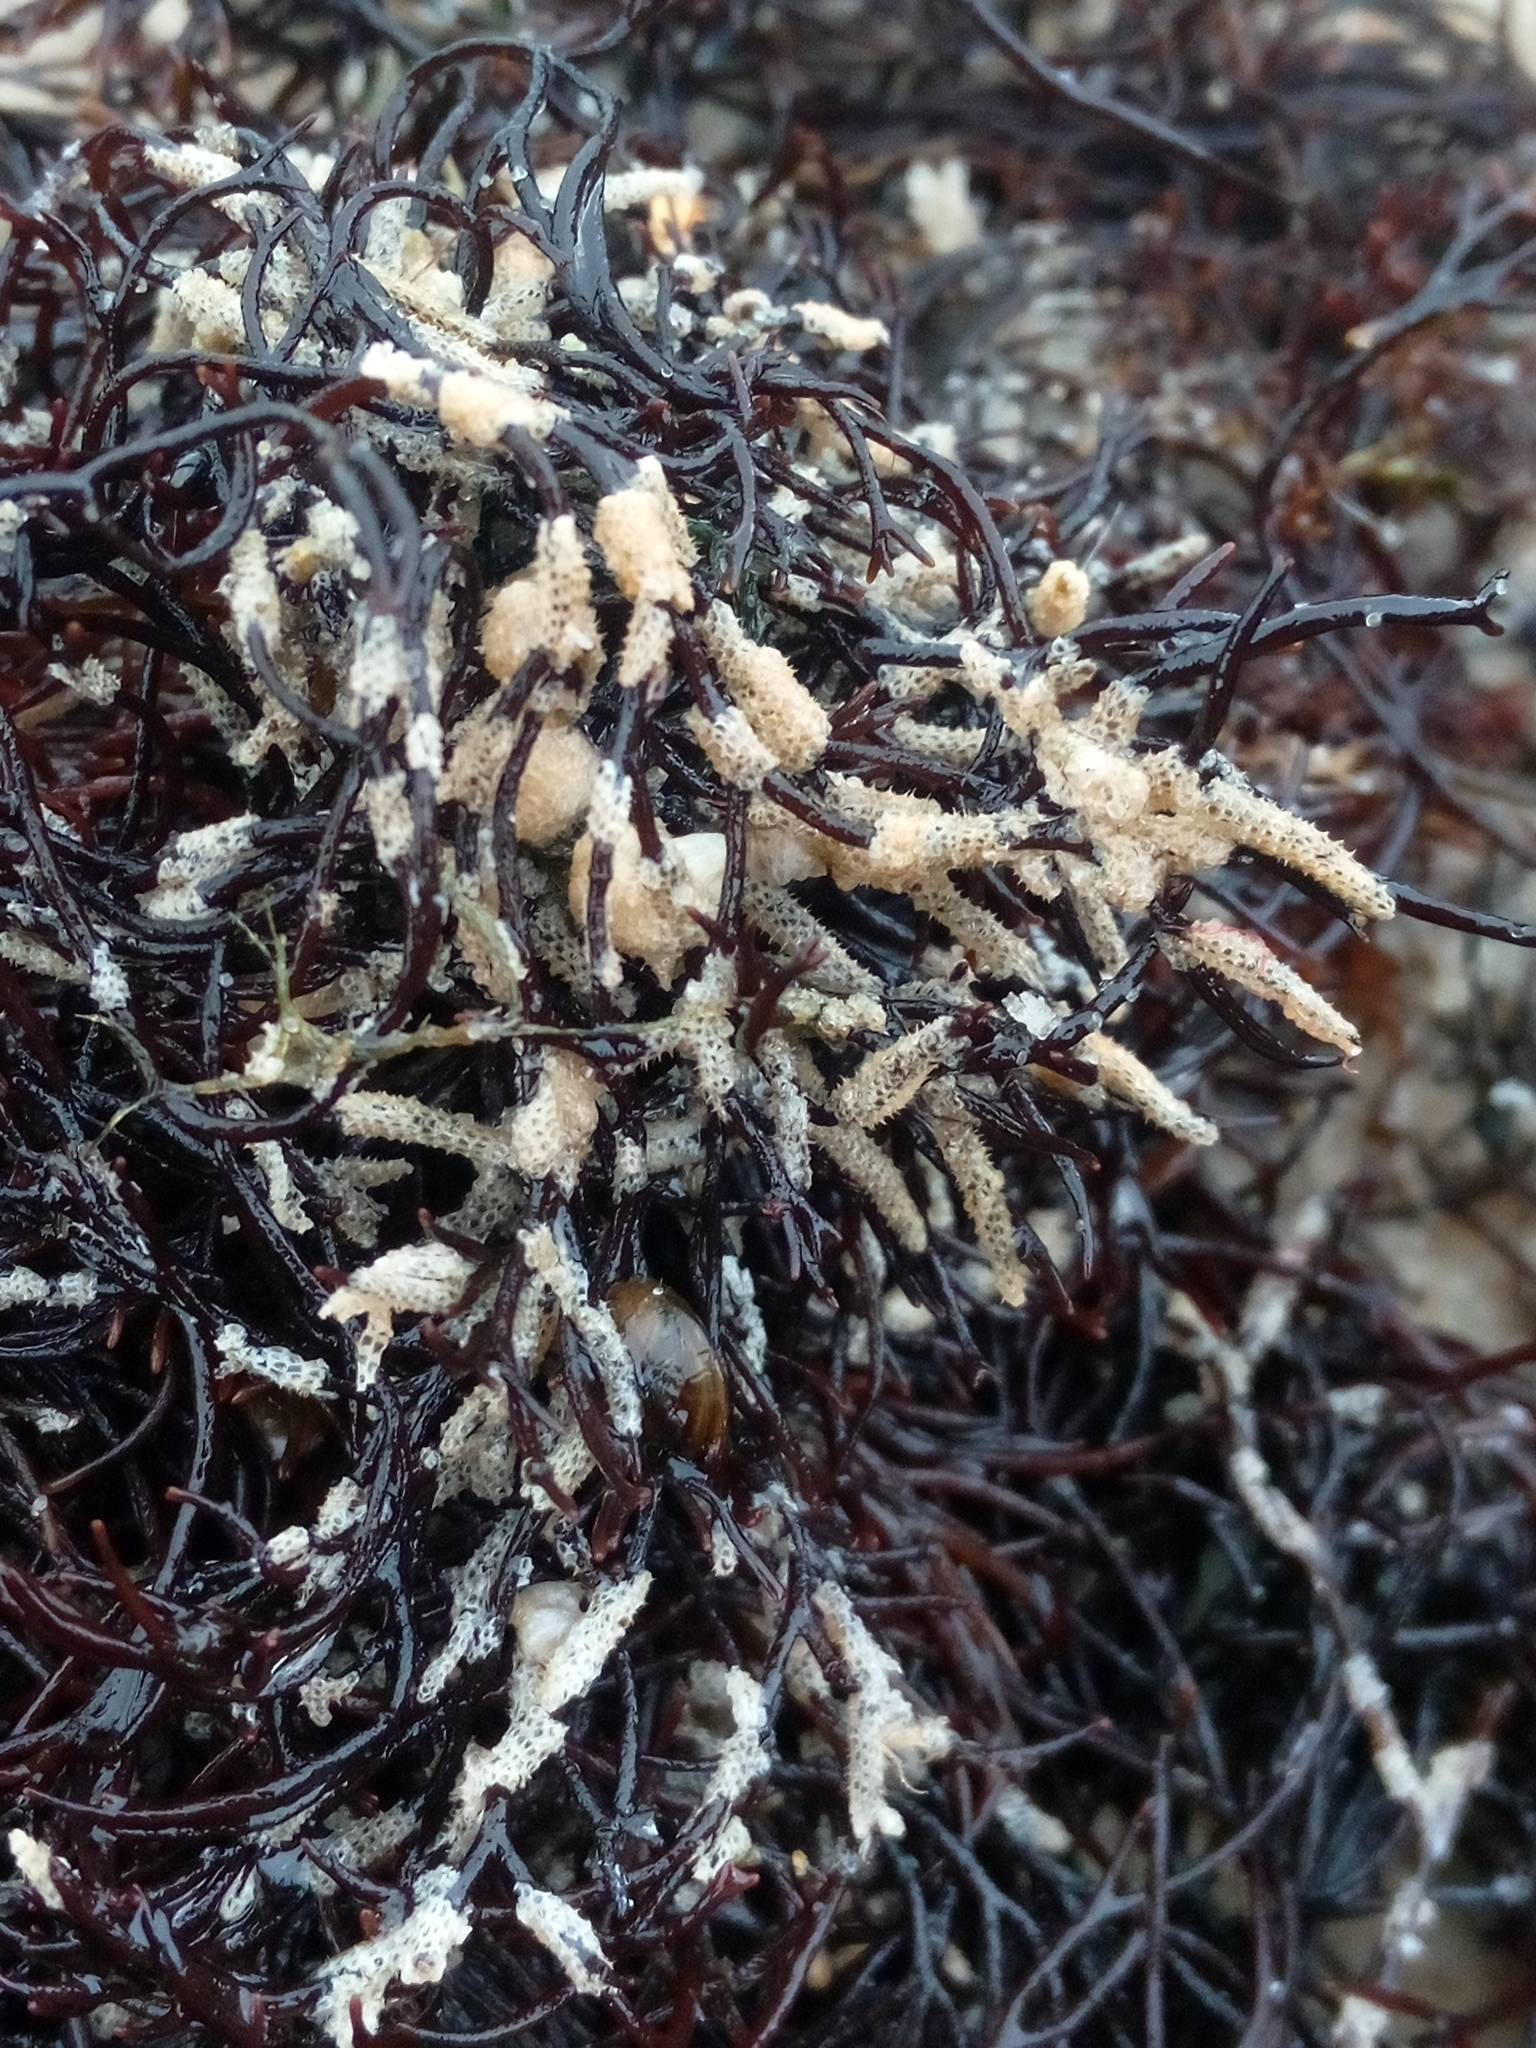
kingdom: Animalia
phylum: Bryozoa
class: Gymnolaemata
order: Cheilostomatida
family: Electridae
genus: Electra
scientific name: Electra pilosa
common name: Hairy sea-mat
